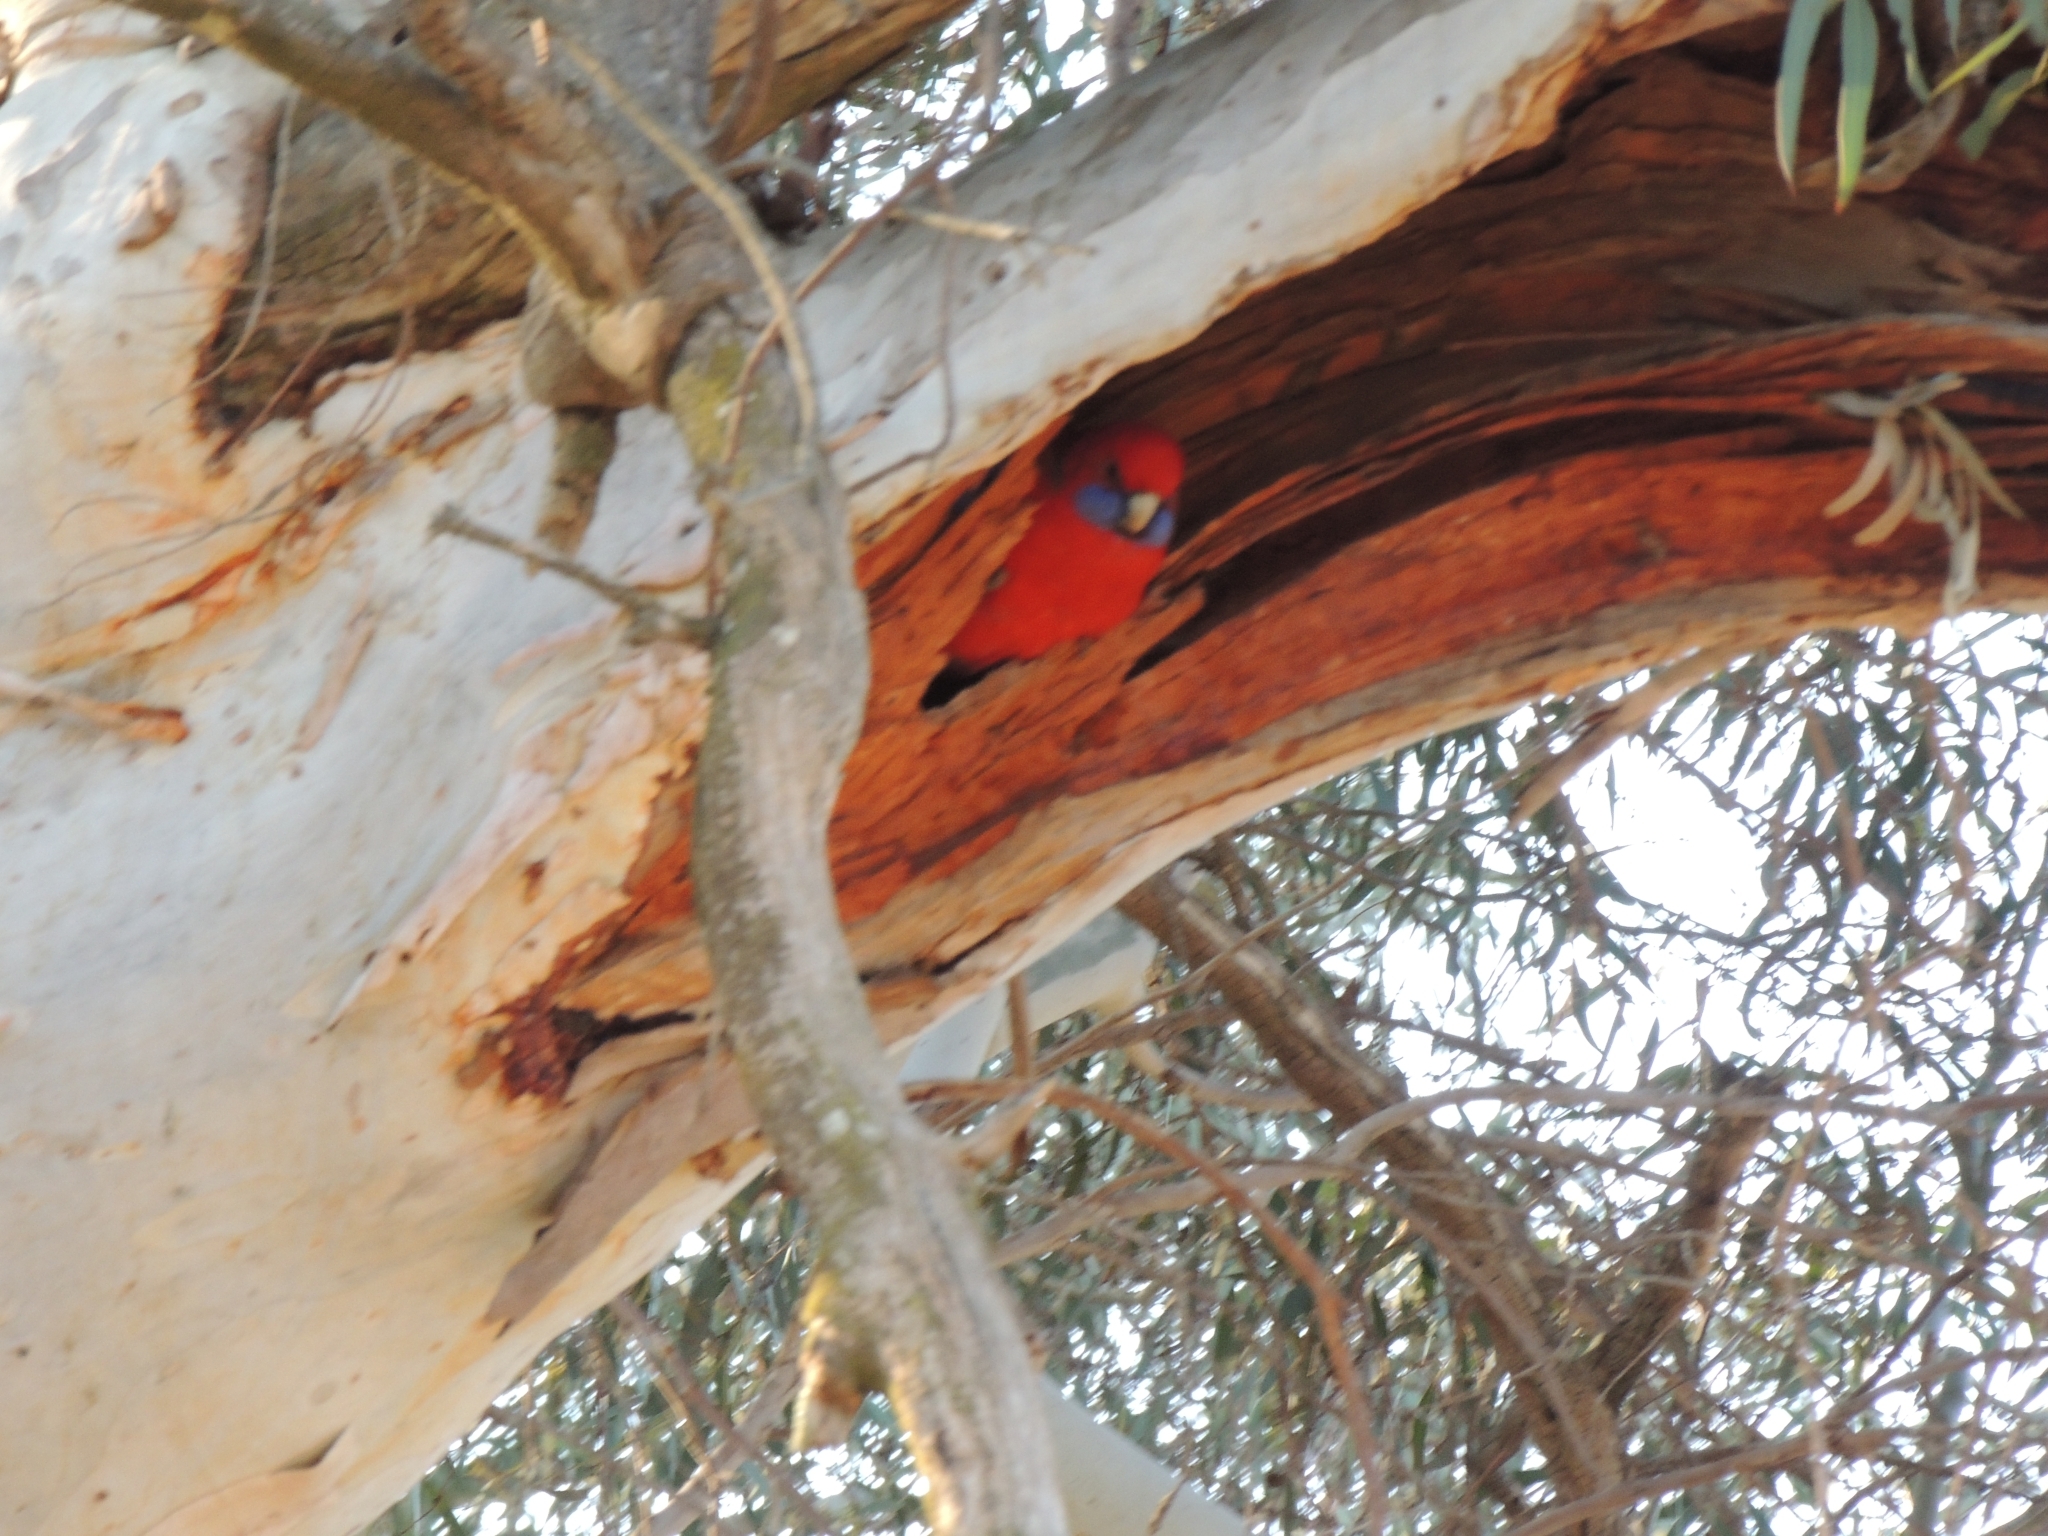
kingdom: Animalia
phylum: Chordata
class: Aves
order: Psittaciformes
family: Psittacidae
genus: Platycercus
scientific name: Platycercus elegans
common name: Crimson rosella
